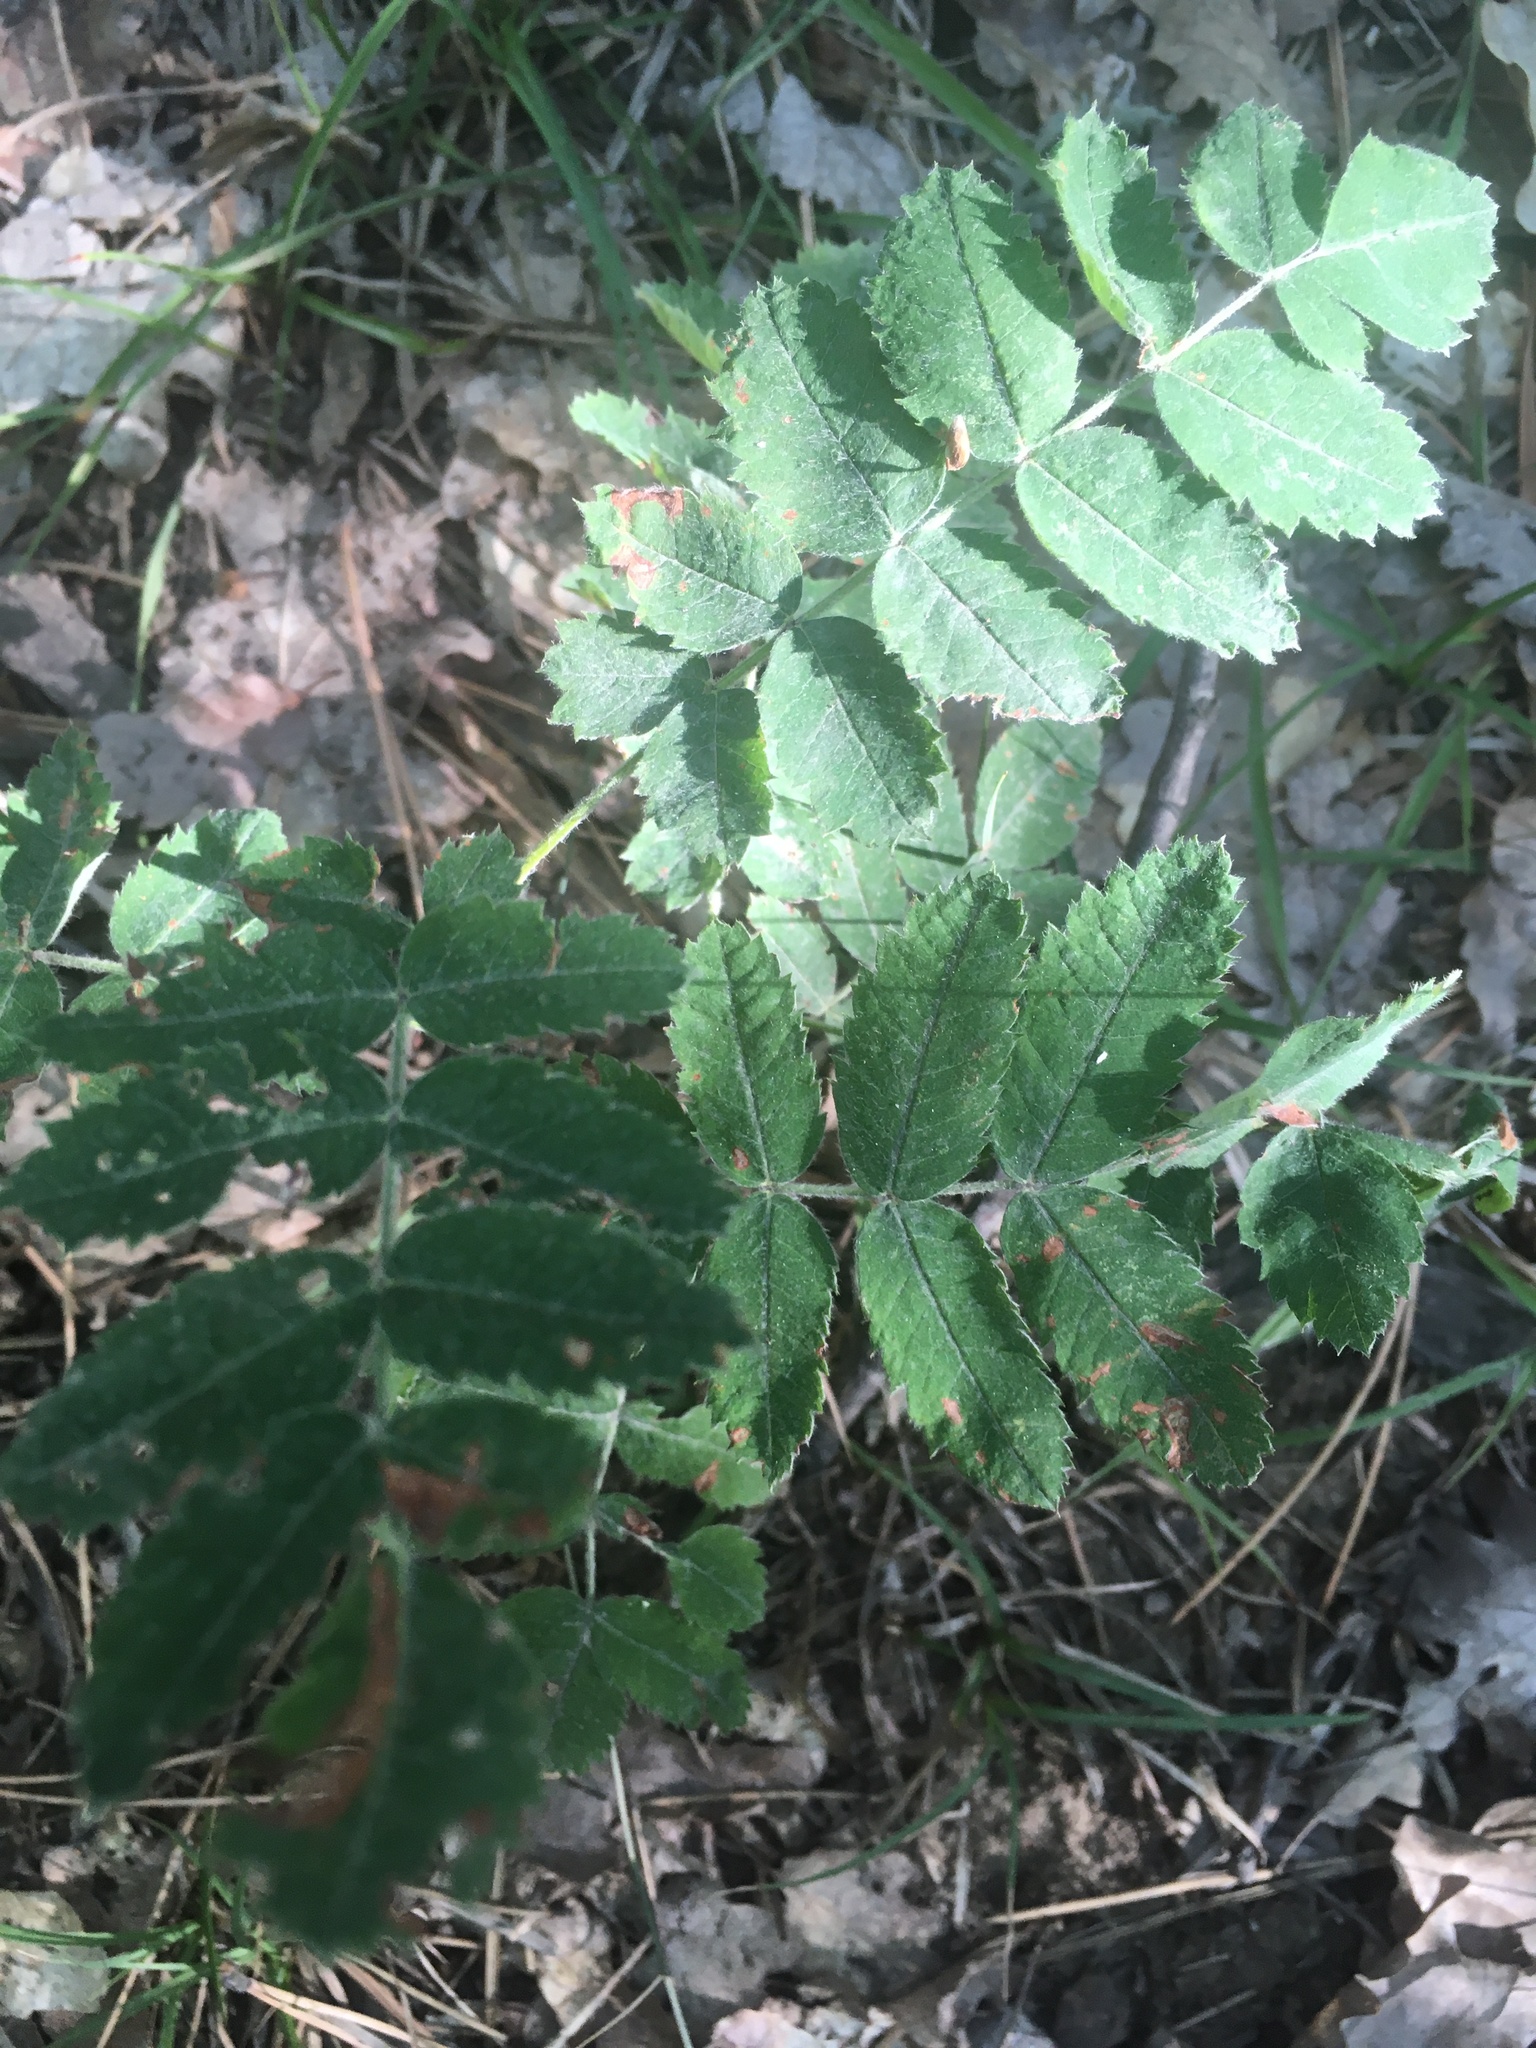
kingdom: Plantae
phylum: Tracheophyta
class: Magnoliopsida
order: Rosales
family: Rosaceae
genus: Sorbus
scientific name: Sorbus aucuparia
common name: Rowan
